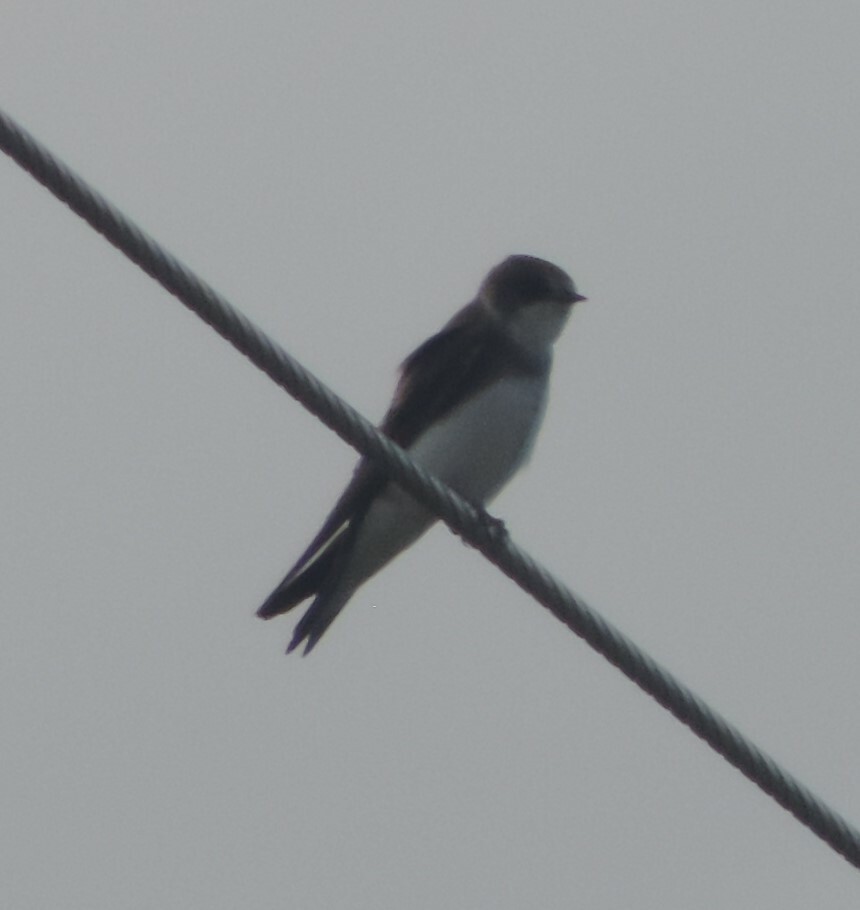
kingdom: Animalia
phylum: Chordata
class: Aves
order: Passeriformes
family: Hirundinidae
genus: Riparia
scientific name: Riparia riparia
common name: Sand martin
